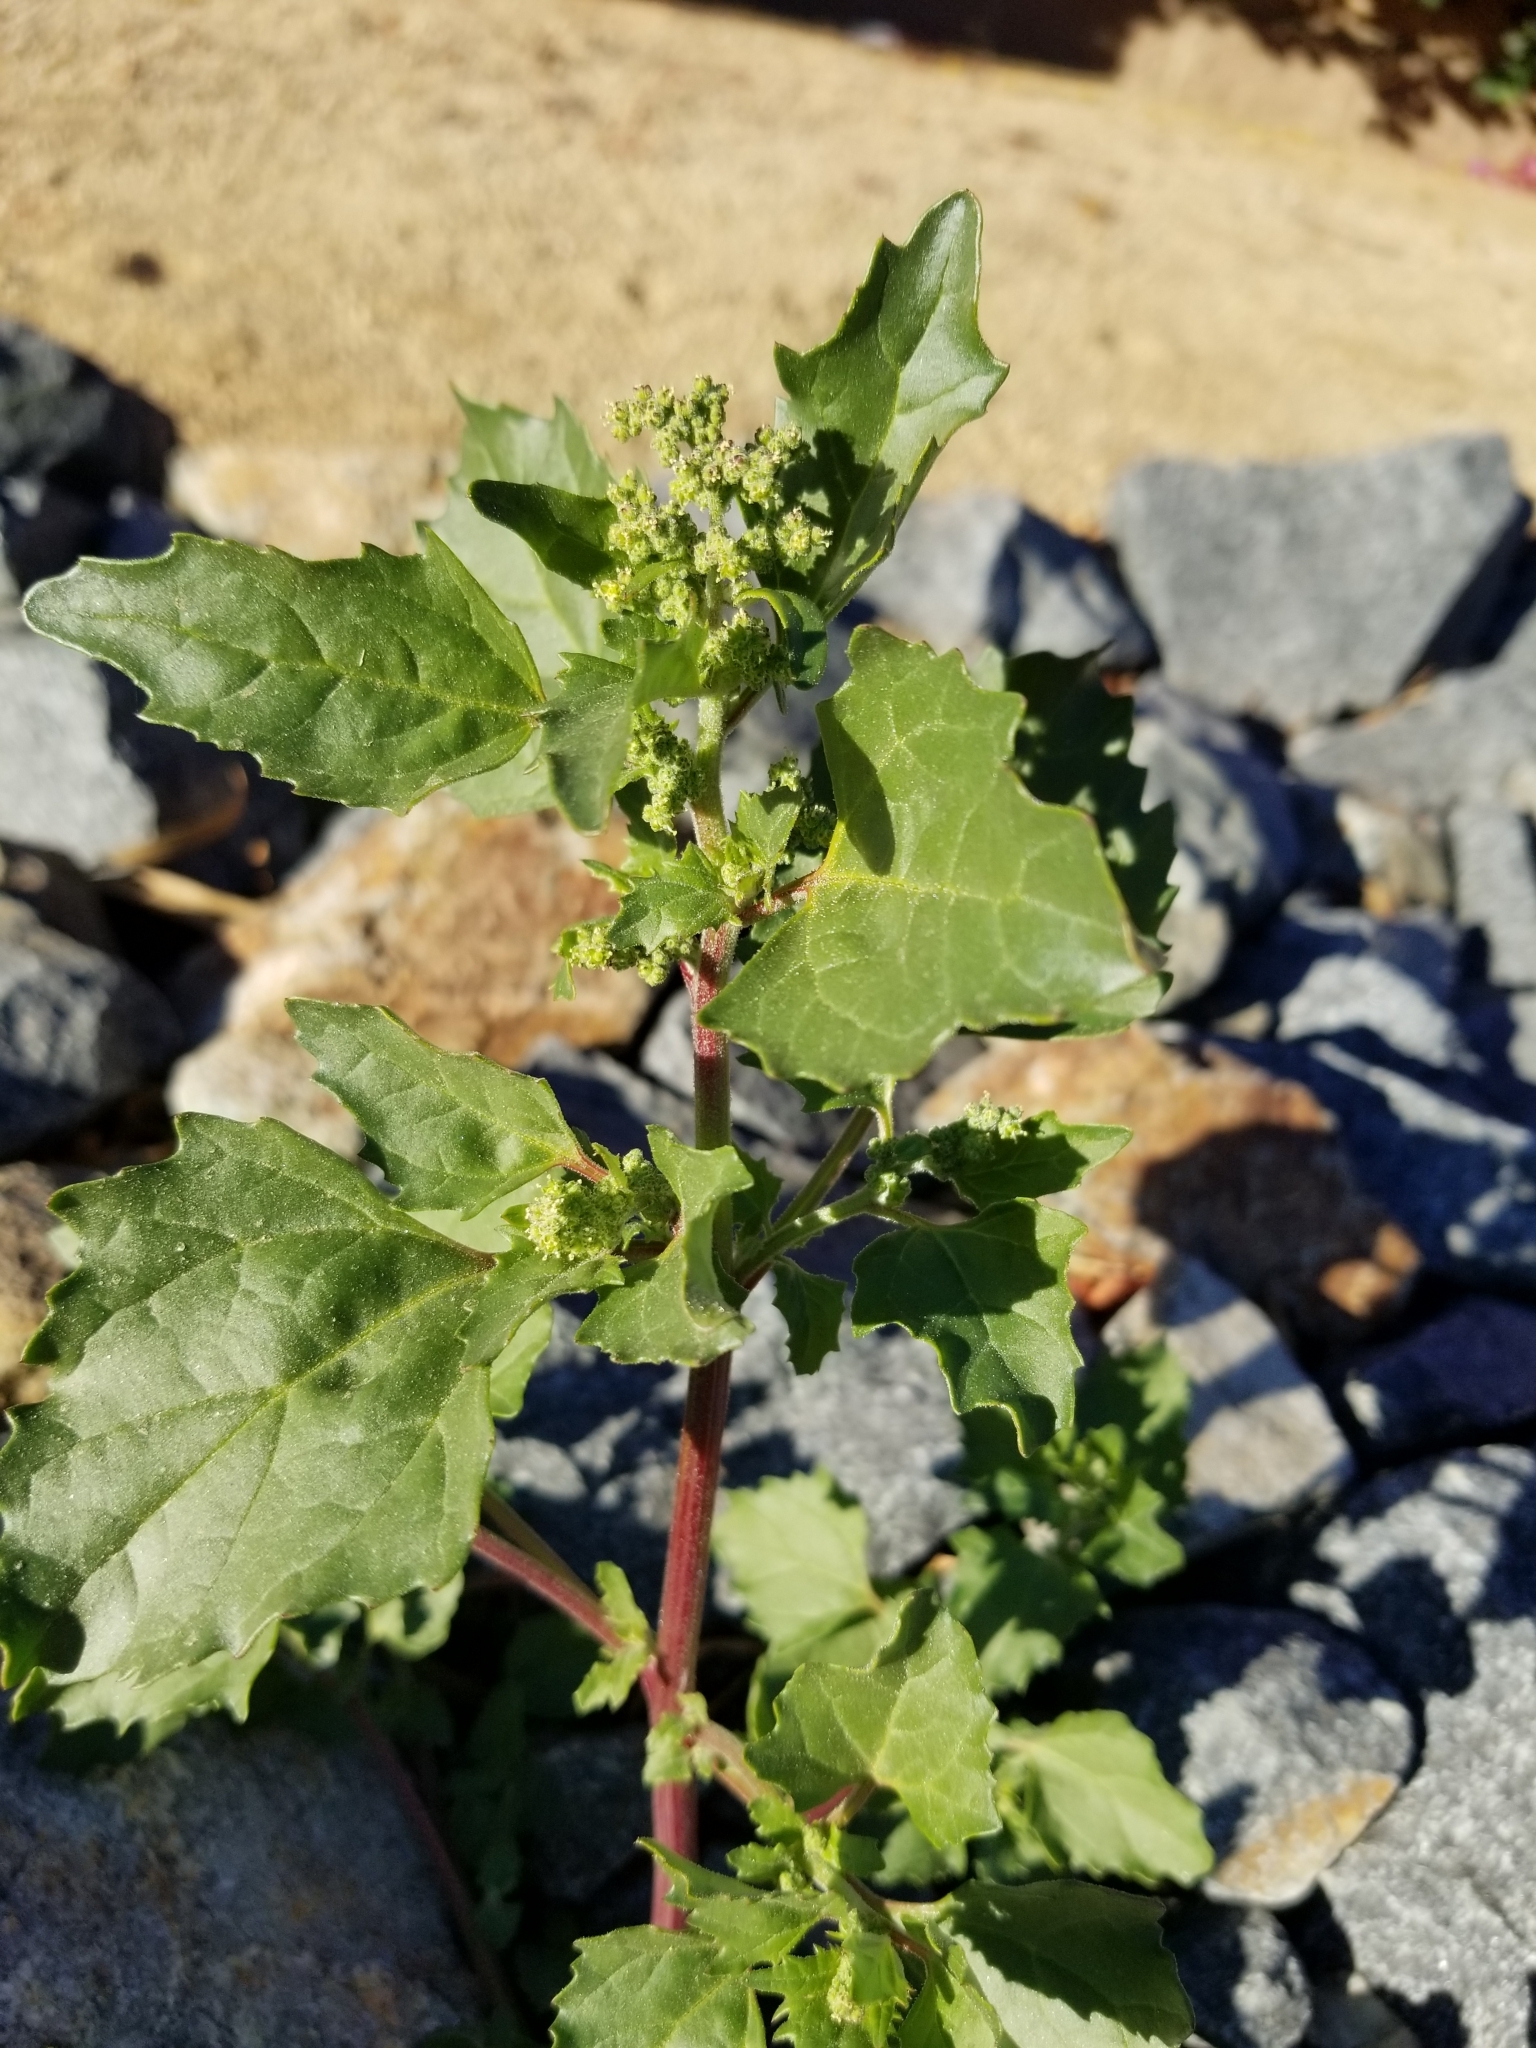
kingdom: Plantae
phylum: Tracheophyta
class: Magnoliopsida
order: Caryophyllales
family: Amaranthaceae
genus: Chenopodiastrum
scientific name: Chenopodiastrum murale
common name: Sowbane
